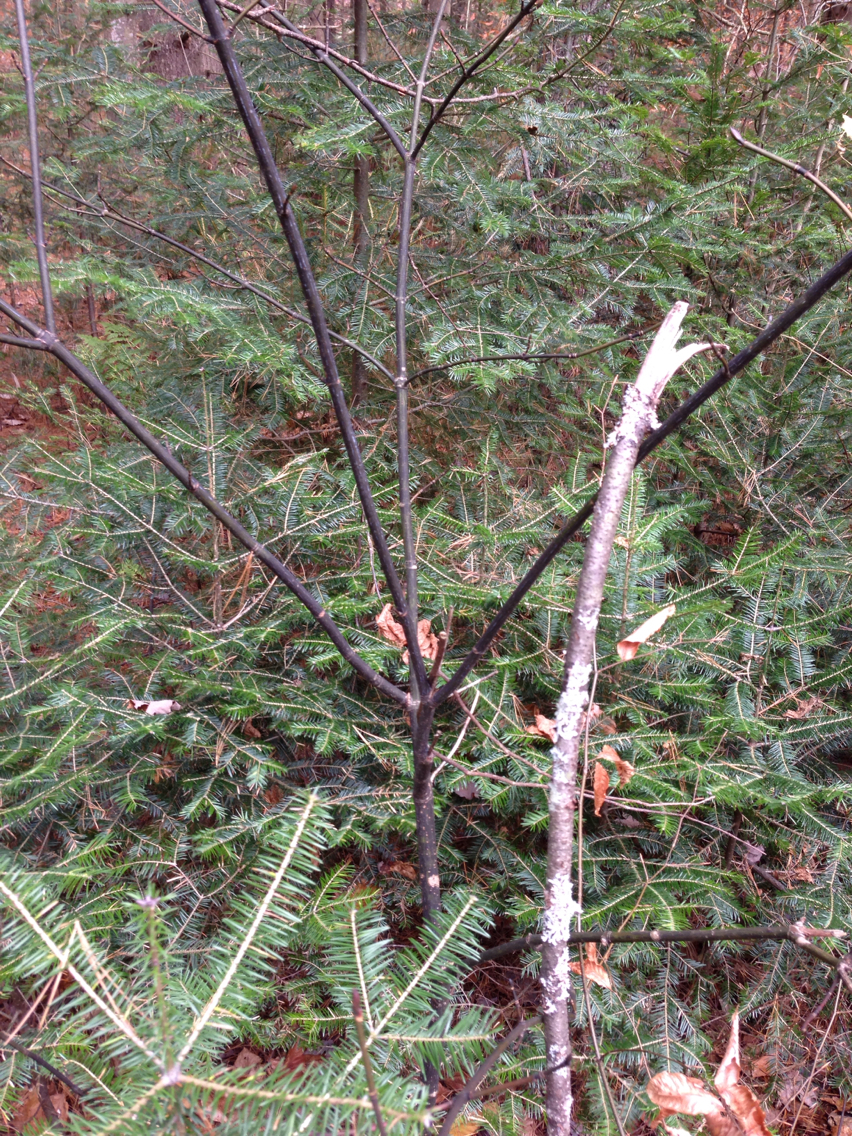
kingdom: Plantae
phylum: Tracheophyta
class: Magnoliopsida
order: Sapindales
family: Sapindaceae
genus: Acer
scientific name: Acer pensylvanicum
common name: Moosewood
